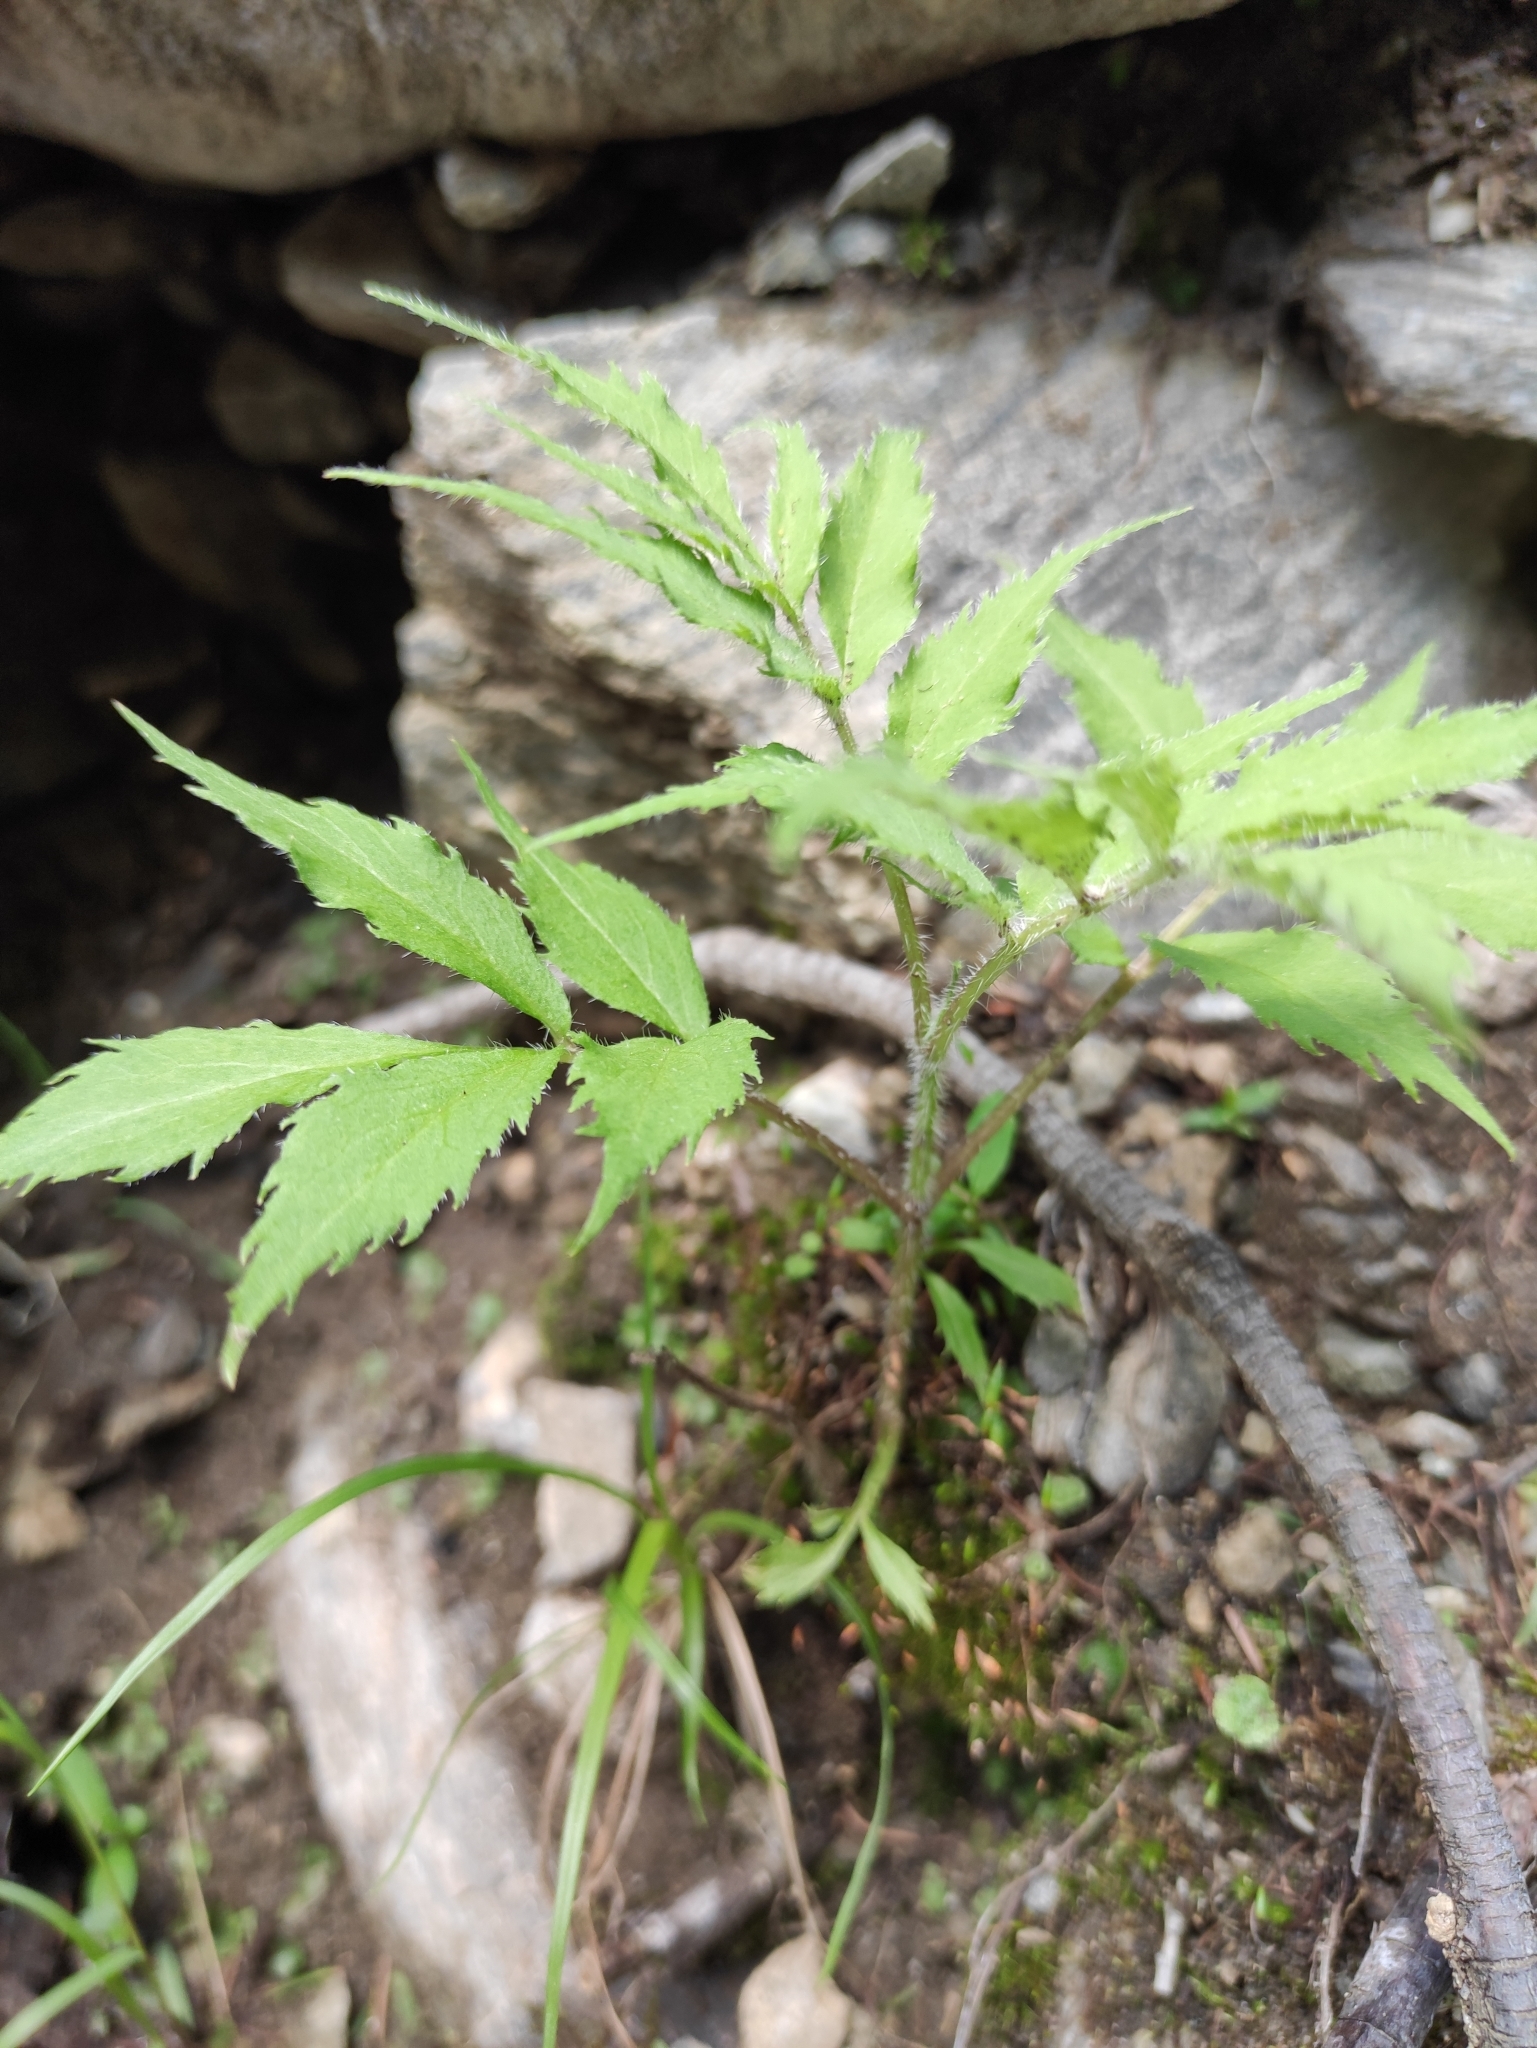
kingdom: Plantae
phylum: Tracheophyta
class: Magnoliopsida
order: Dipsacales
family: Viburnaceae
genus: Sambucus
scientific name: Sambucus sibirica
